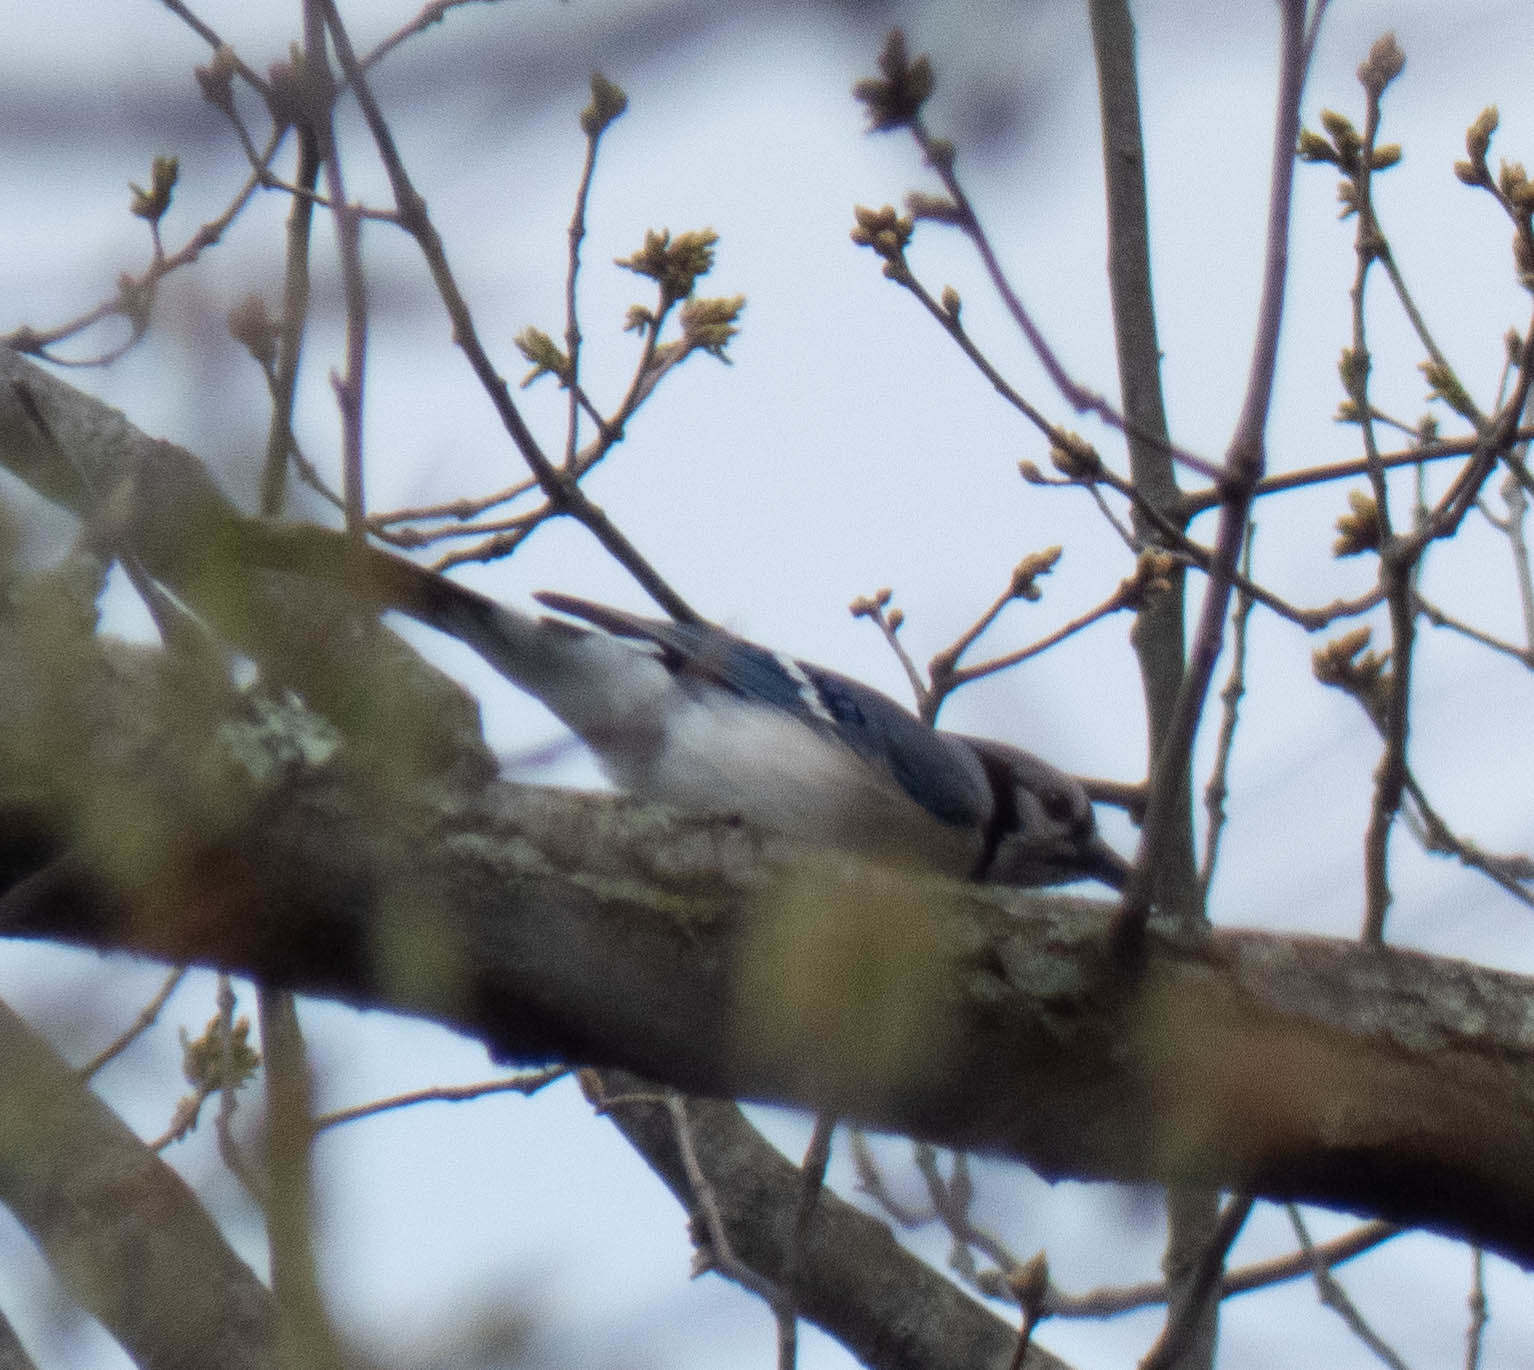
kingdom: Animalia
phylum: Chordata
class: Aves
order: Passeriformes
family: Corvidae
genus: Cyanocitta
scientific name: Cyanocitta cristata
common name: Blue jay
